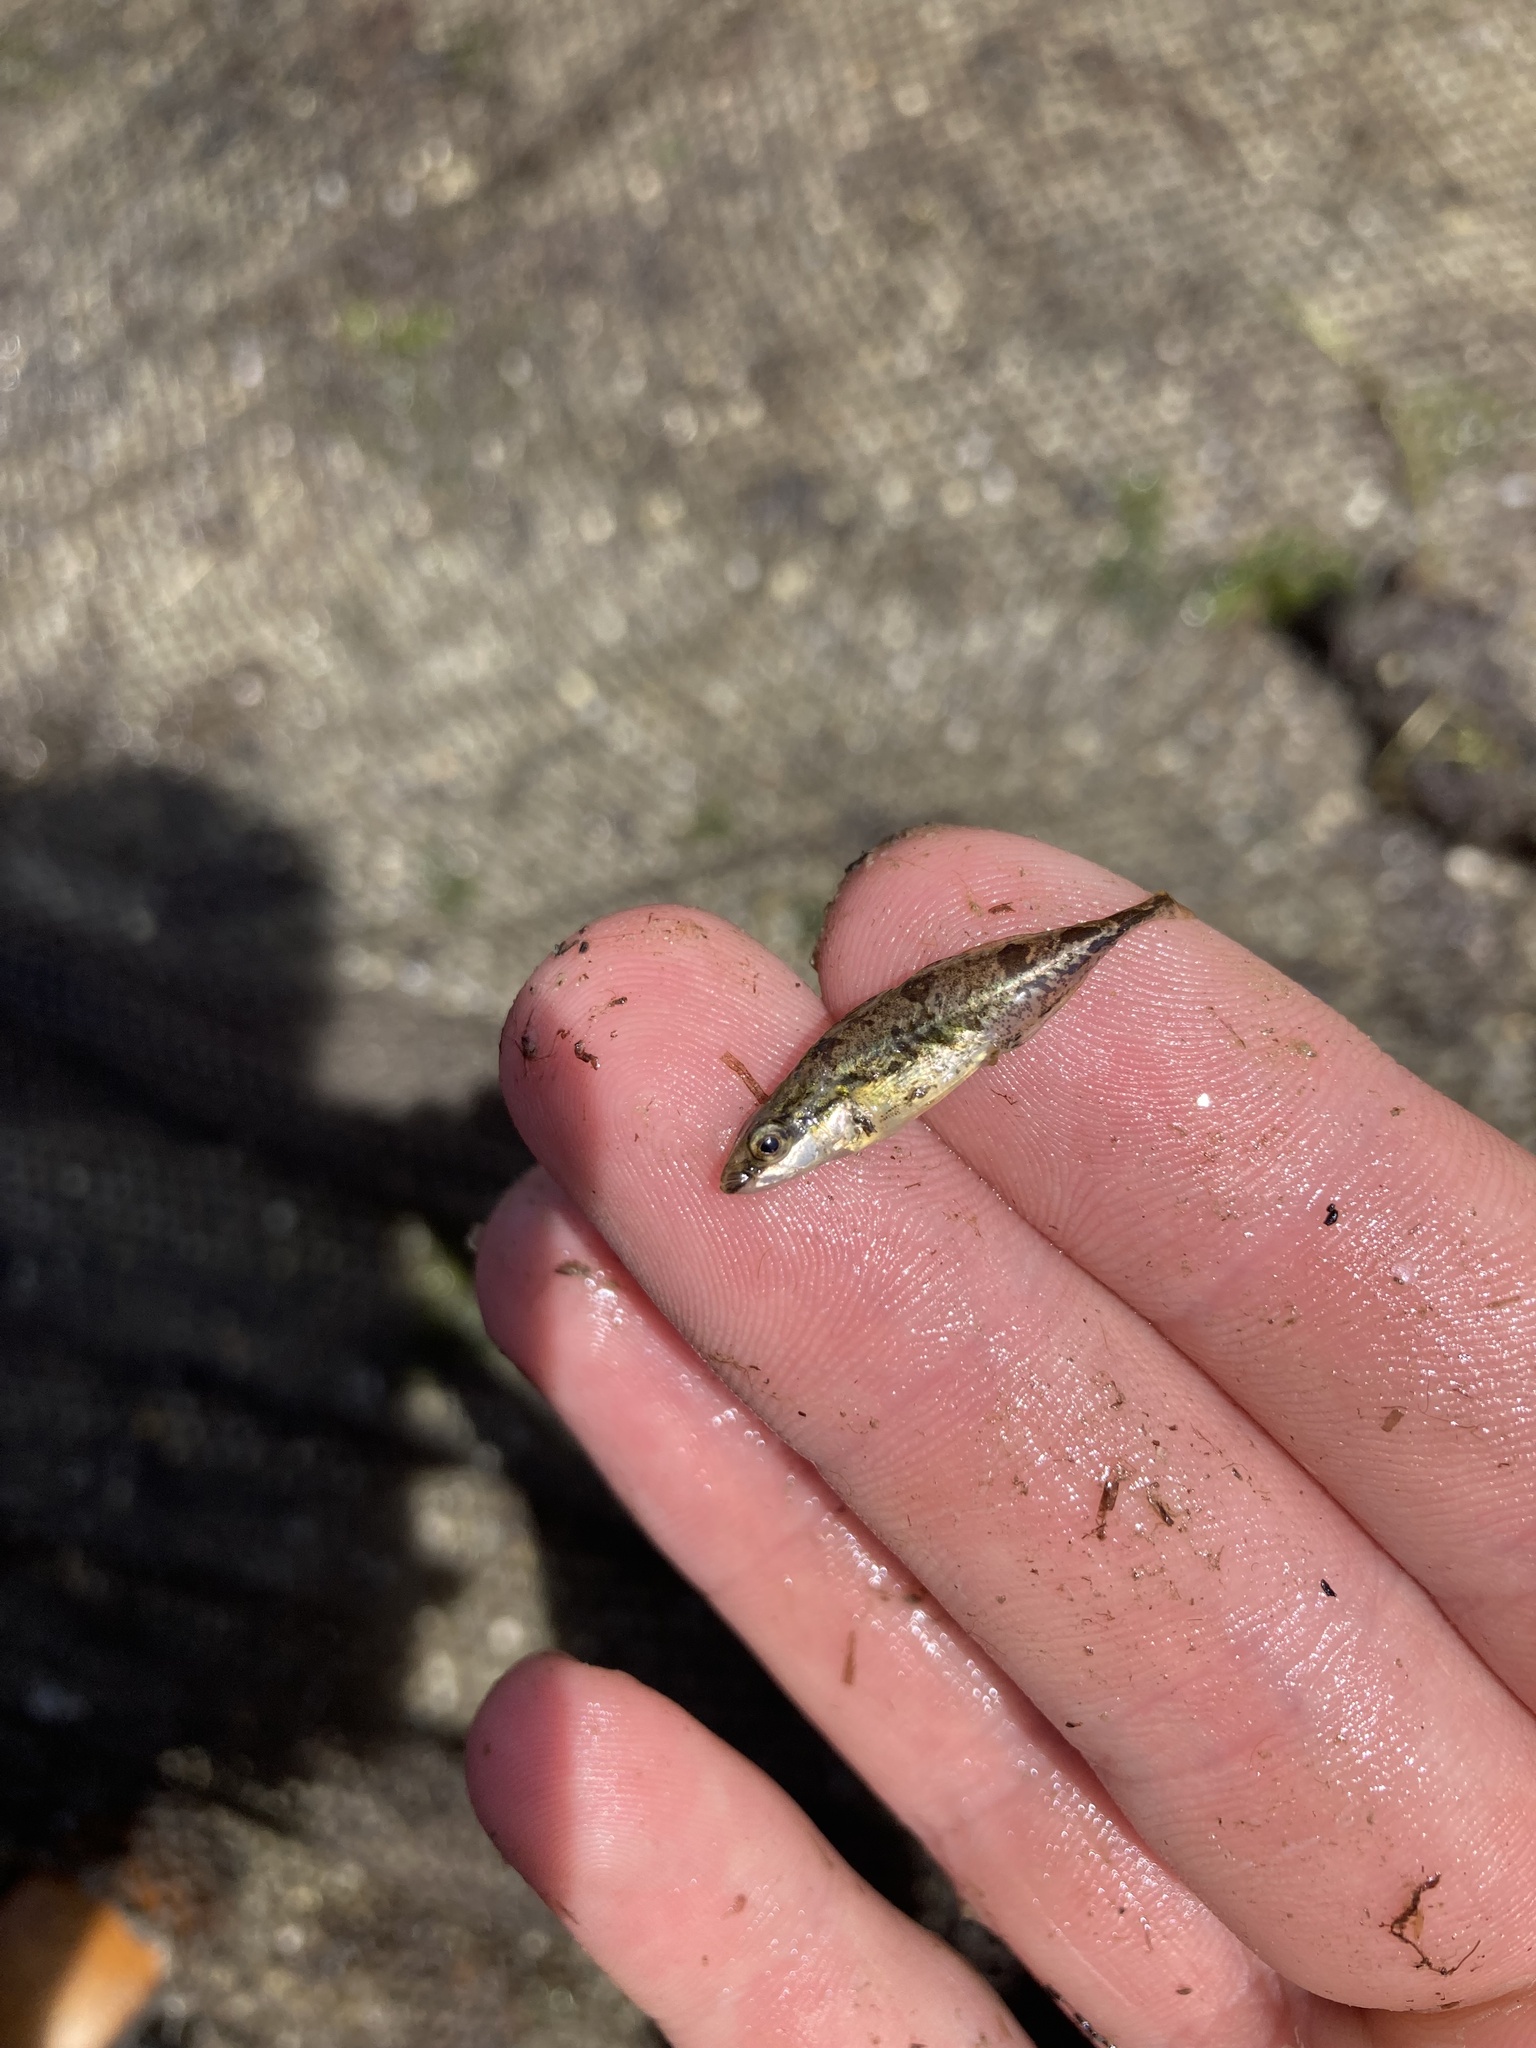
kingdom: Animalia
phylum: Chordata
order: Gasterosteiformes
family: Gasterosteidae
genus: Apeltes
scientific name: Apeltes quadracus
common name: Fourspine stickleback
